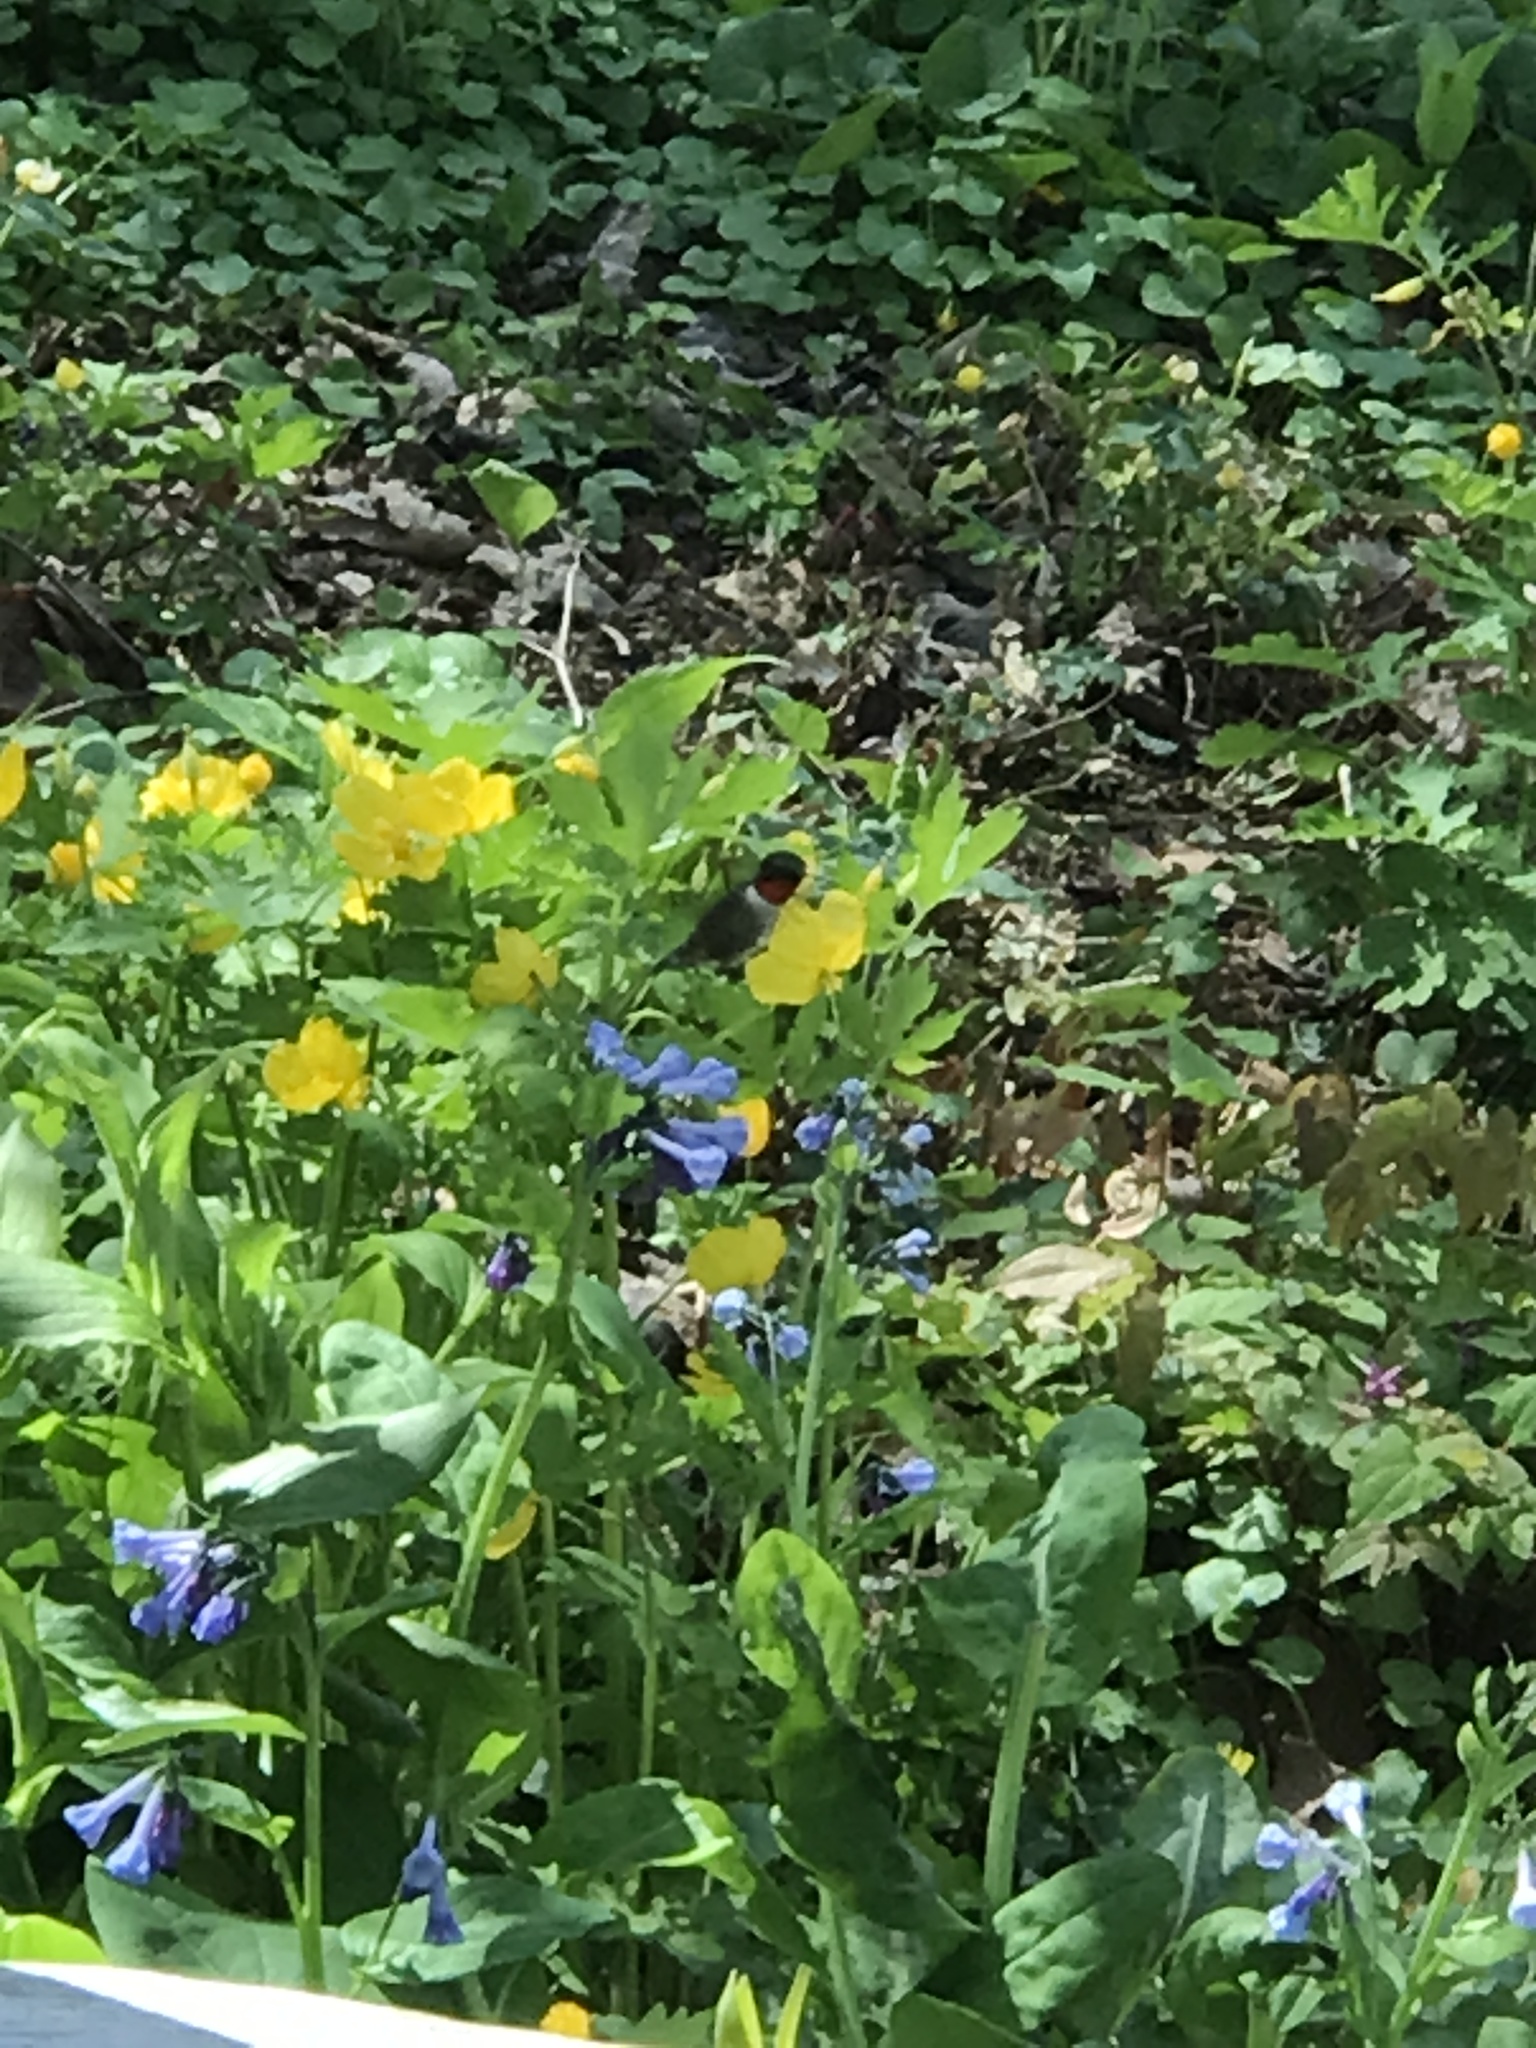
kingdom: Animalia
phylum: Chordata
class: Aves
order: Apodiformes
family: Trochilidae
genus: Archilochus
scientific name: Archilochus colubris
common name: Ruby-throated hummingbird
